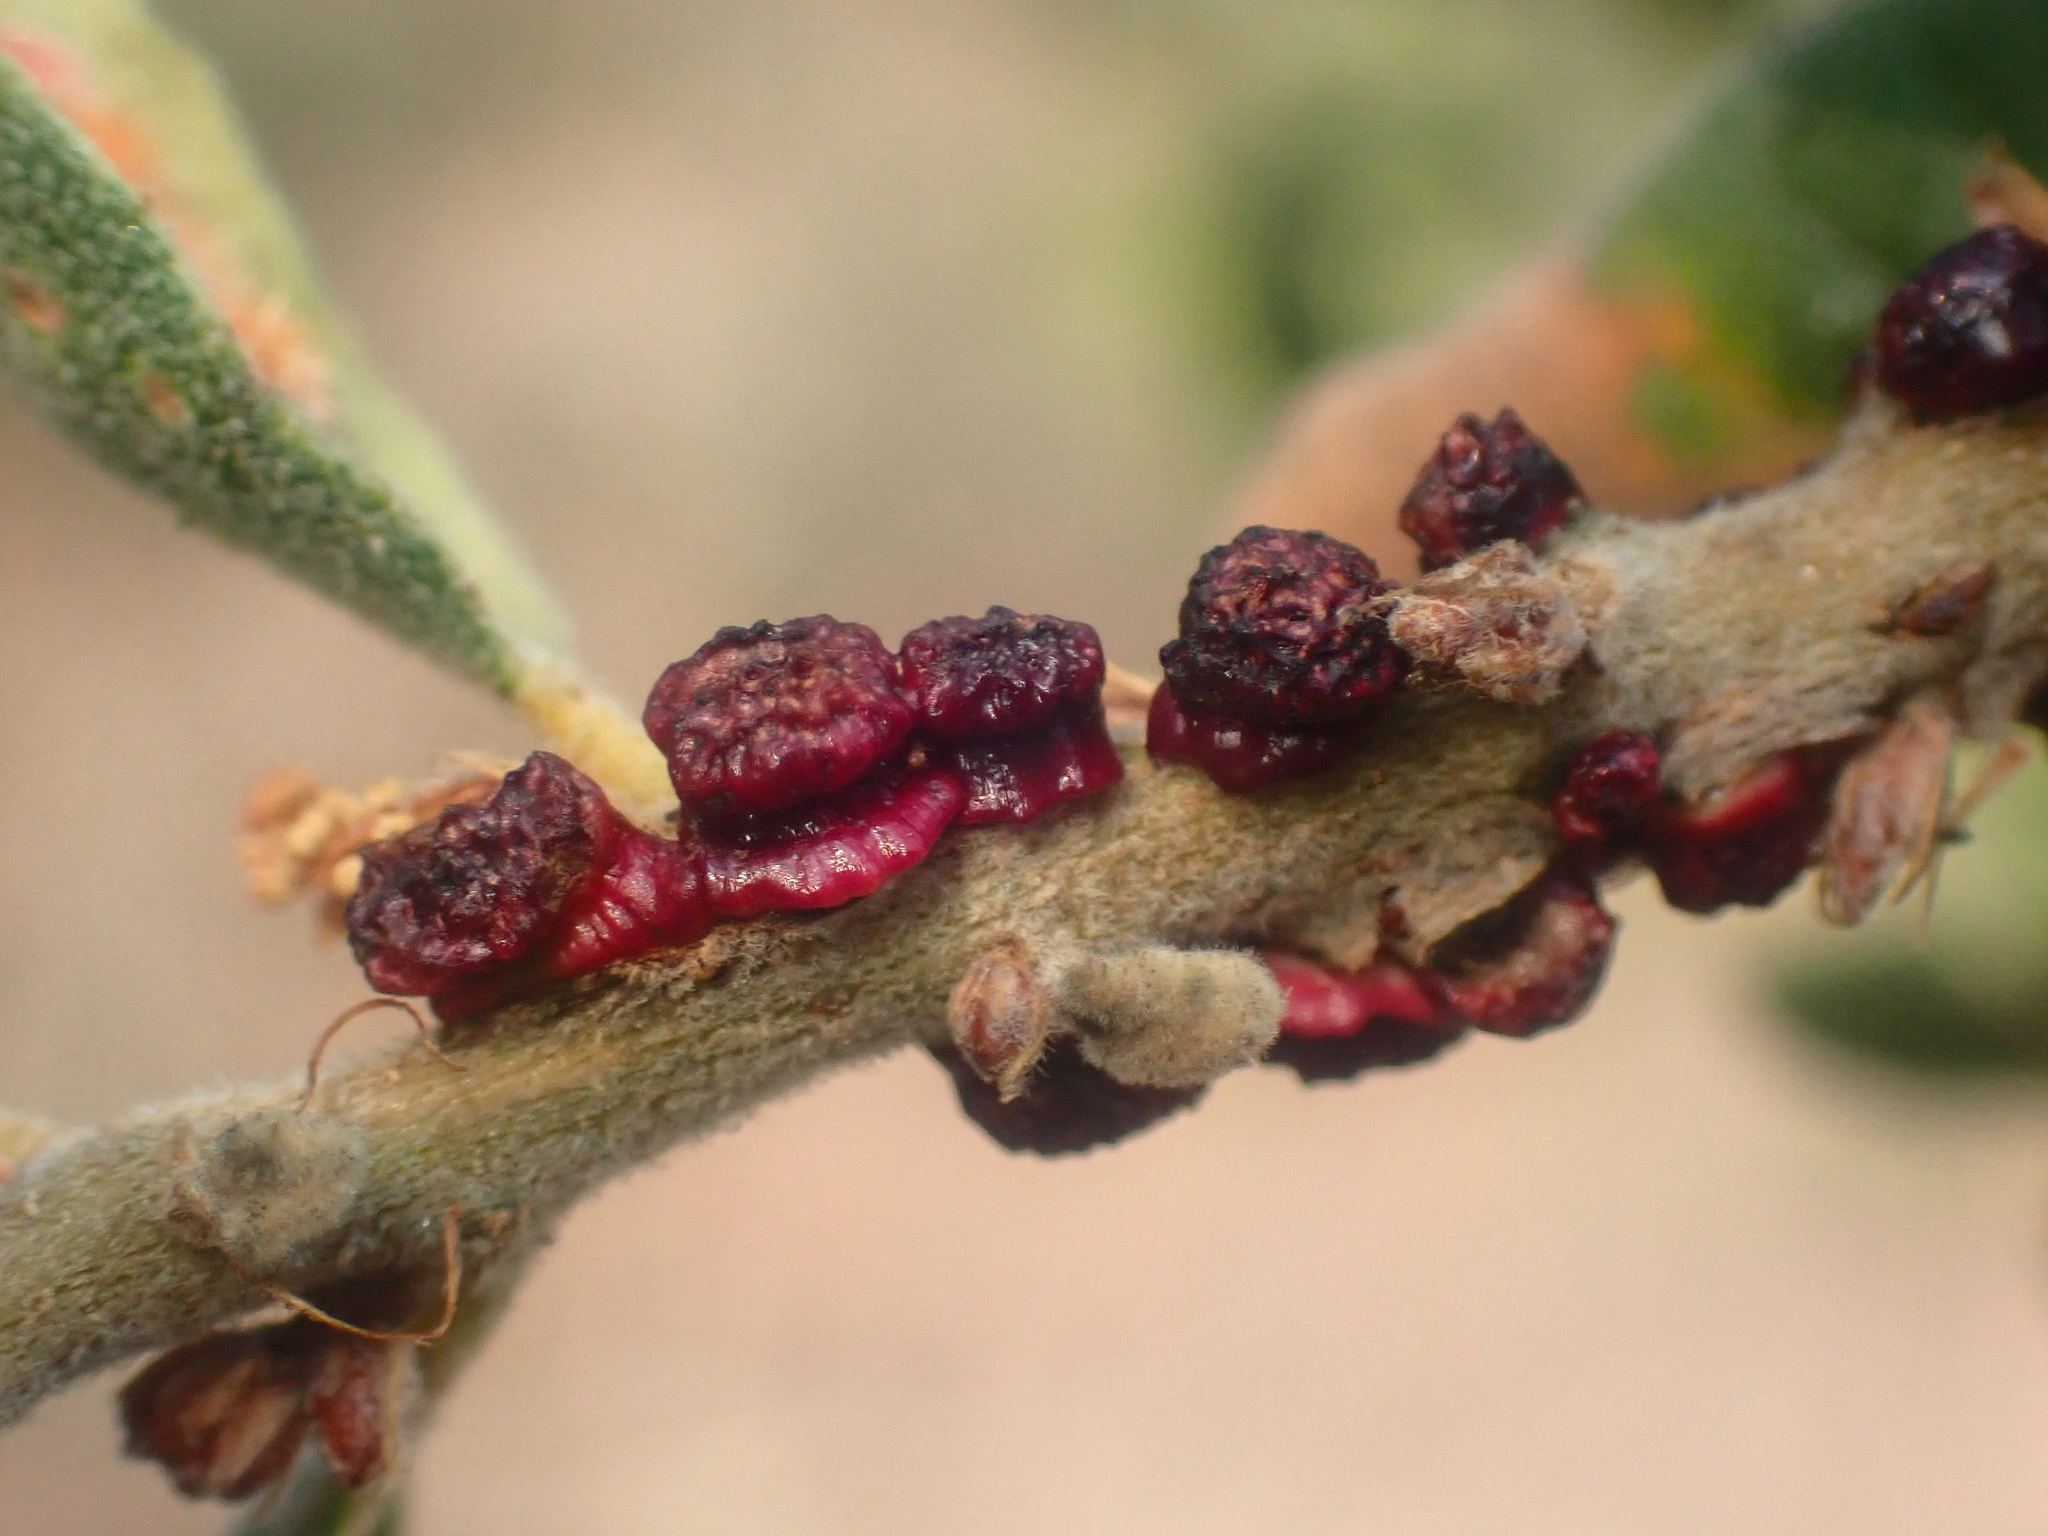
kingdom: Animalia
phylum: Arthropoda
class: Insecta
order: Hymenoptera
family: Cynipidae
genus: Disholcaspis
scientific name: Disholcaspis prehensa
